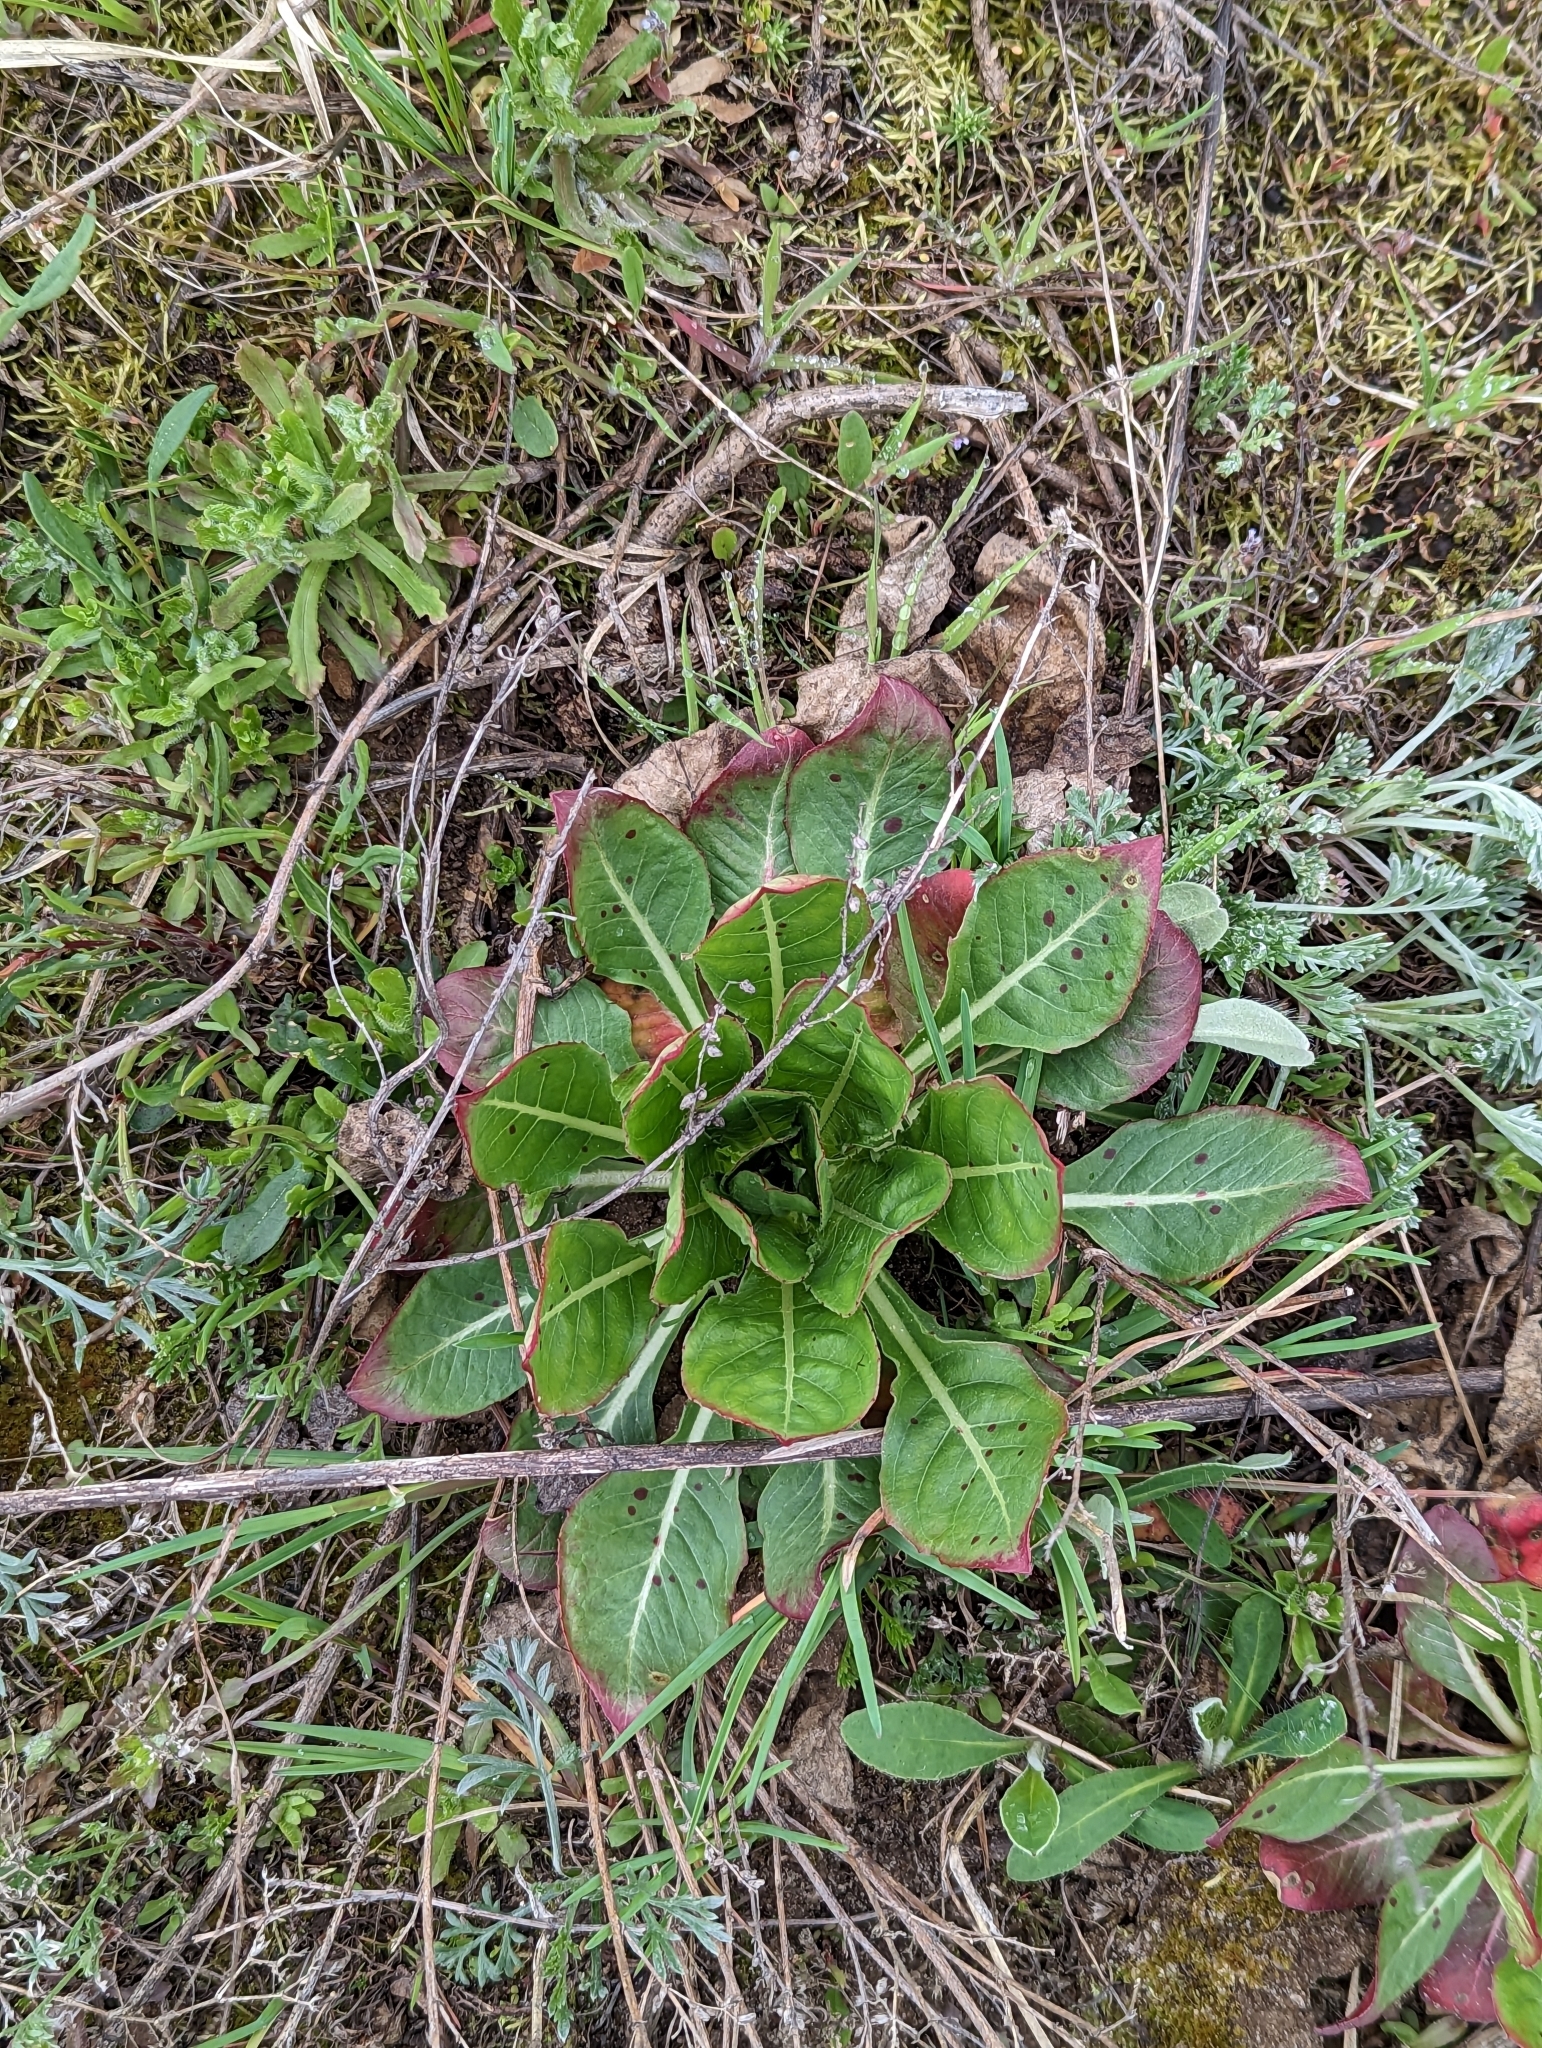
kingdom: Plantae
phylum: Tracheophyta
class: Magnoliopsida
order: Myrtales
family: Onagraceae
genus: Oenothera
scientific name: Oenothera
